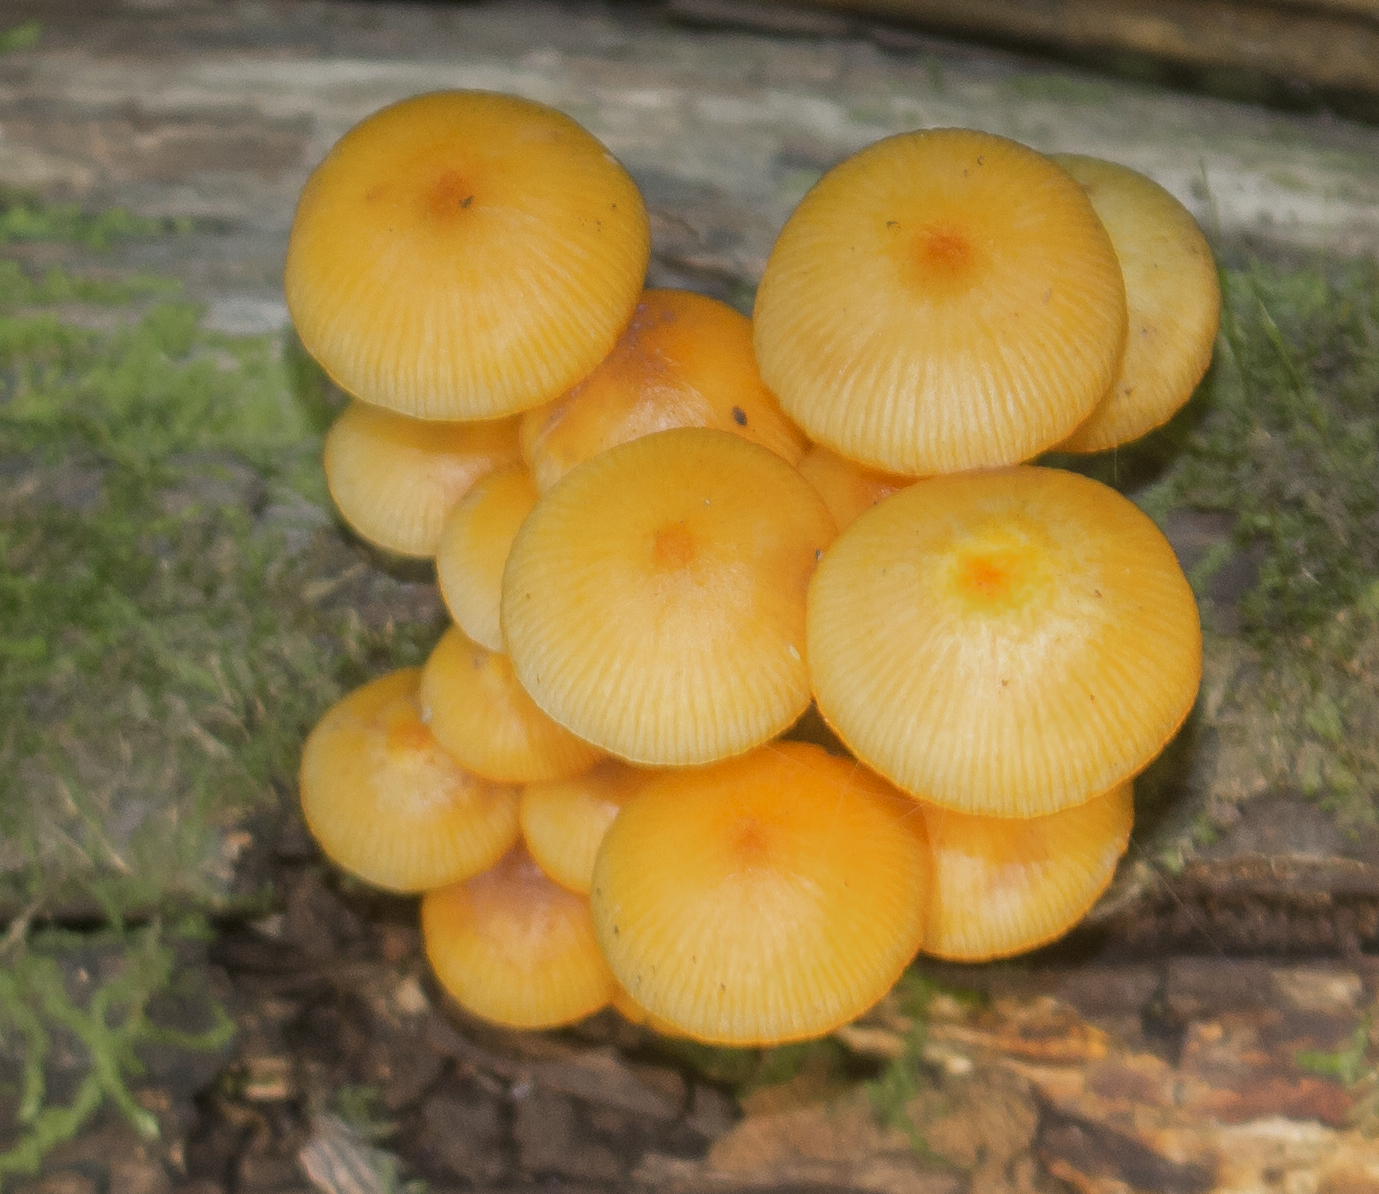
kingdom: Fungi
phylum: Basidiomycota
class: Agaricomycetes
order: Agaricales
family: Mycenaceae
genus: Mycena
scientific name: Mycena leaiana
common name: Orange mycena
